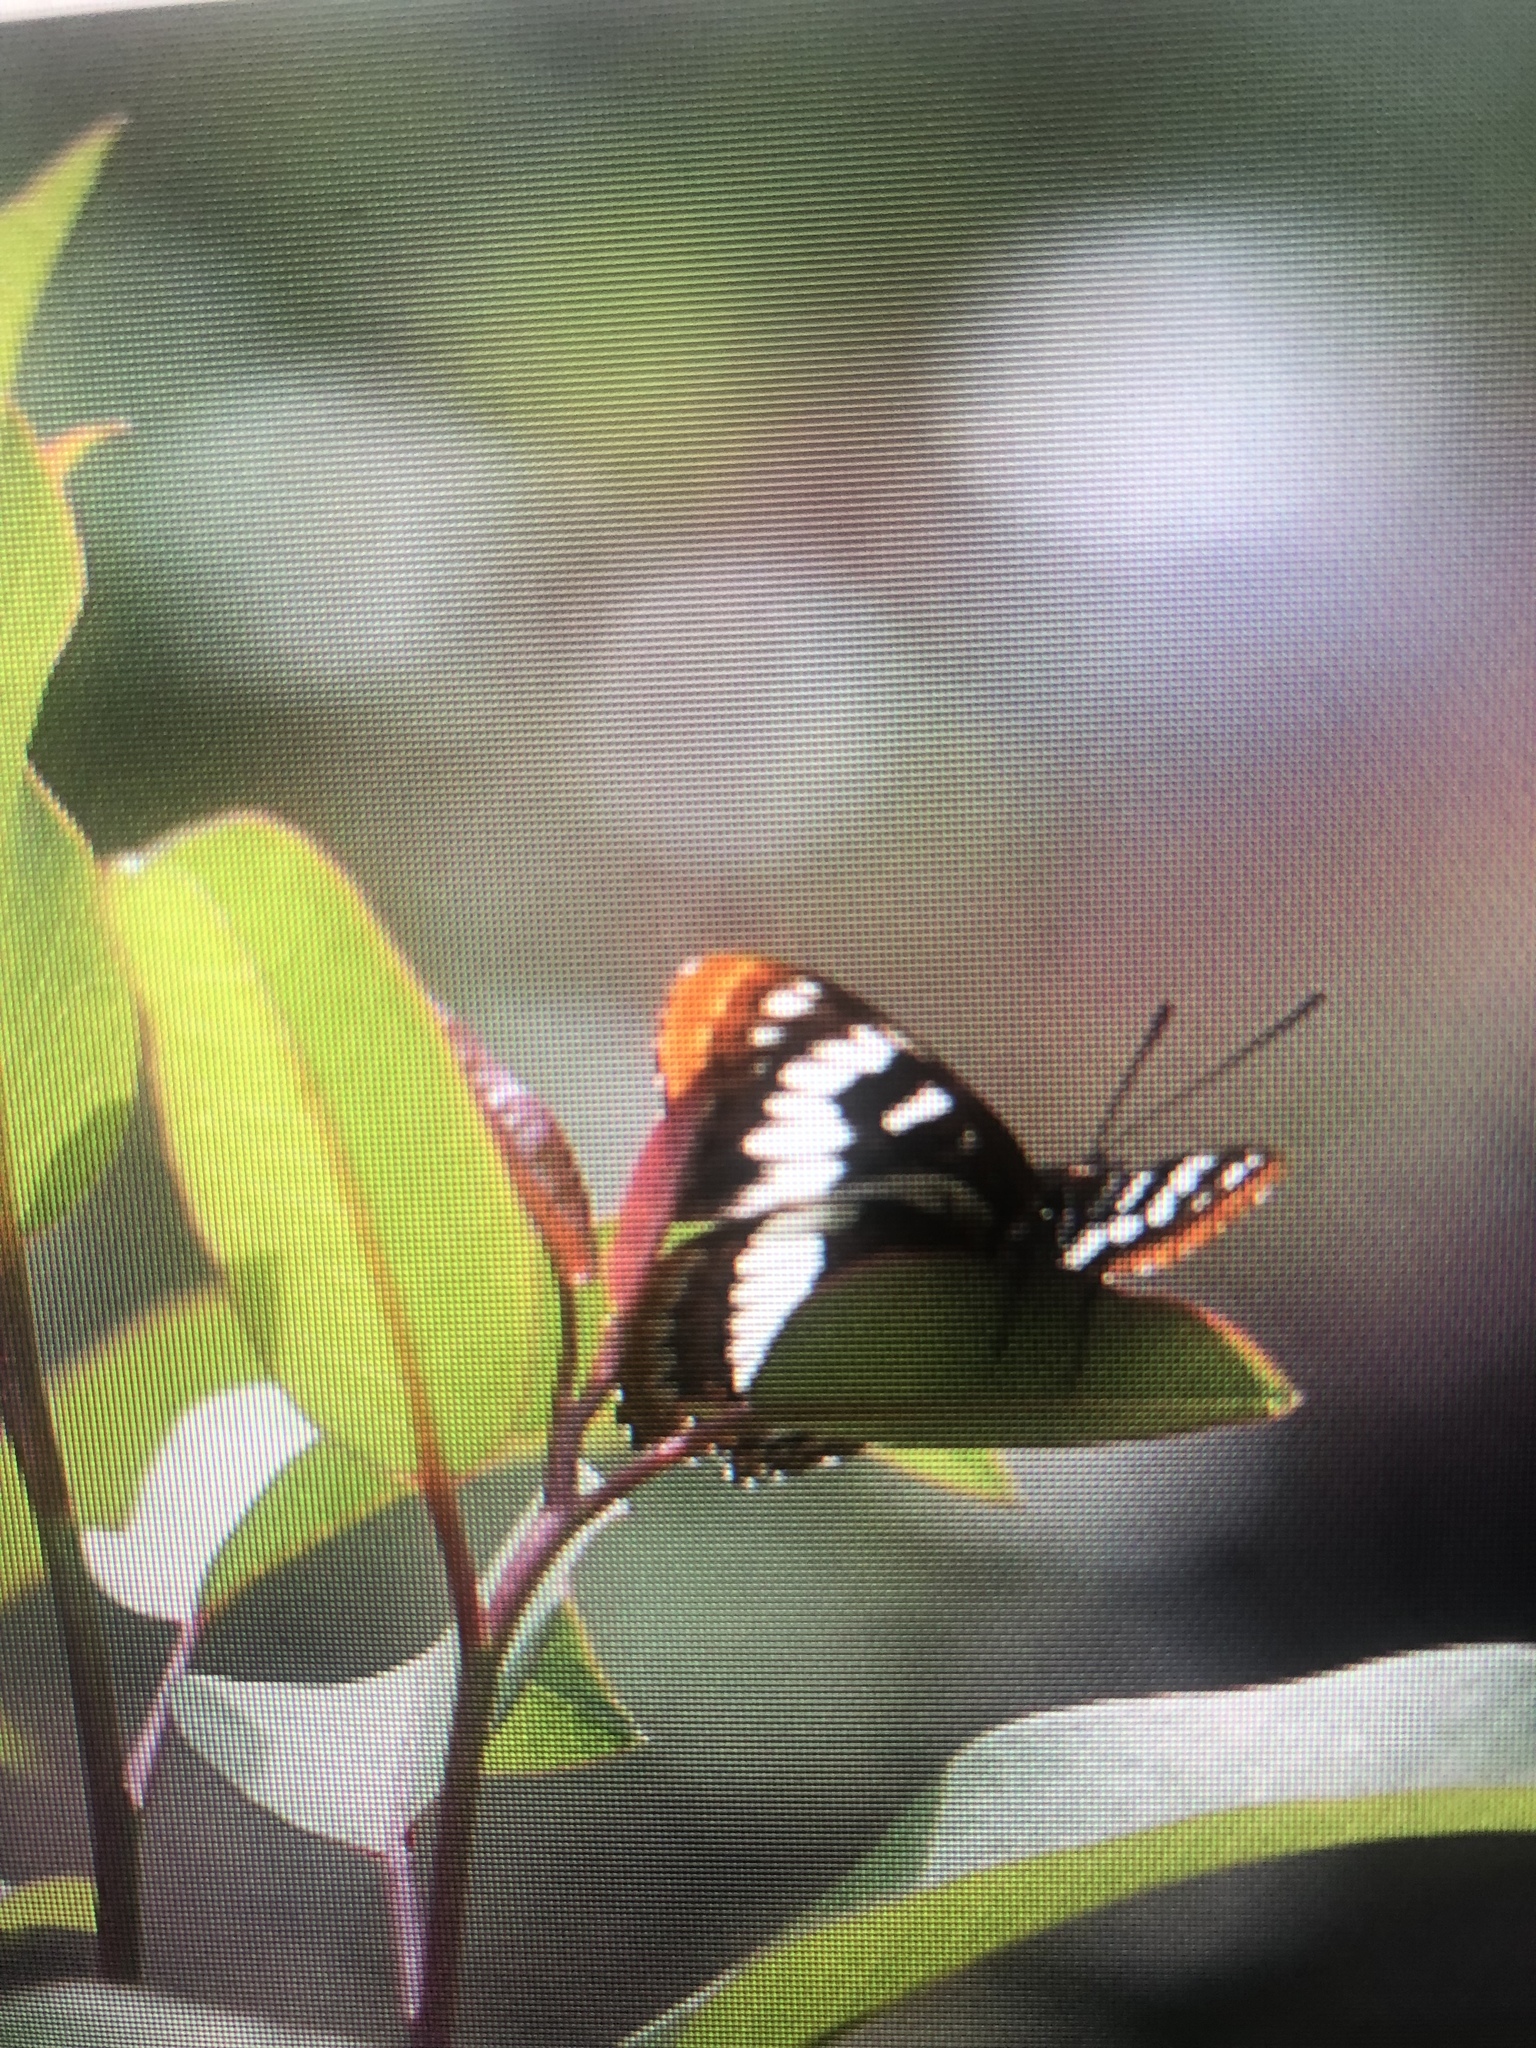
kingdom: Animalia
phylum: Arthropoda
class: Insecta
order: Lepidoptera
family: Nymphalidae
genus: Limenitis
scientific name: Limenitis lorquini
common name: Lorquin's admiral
